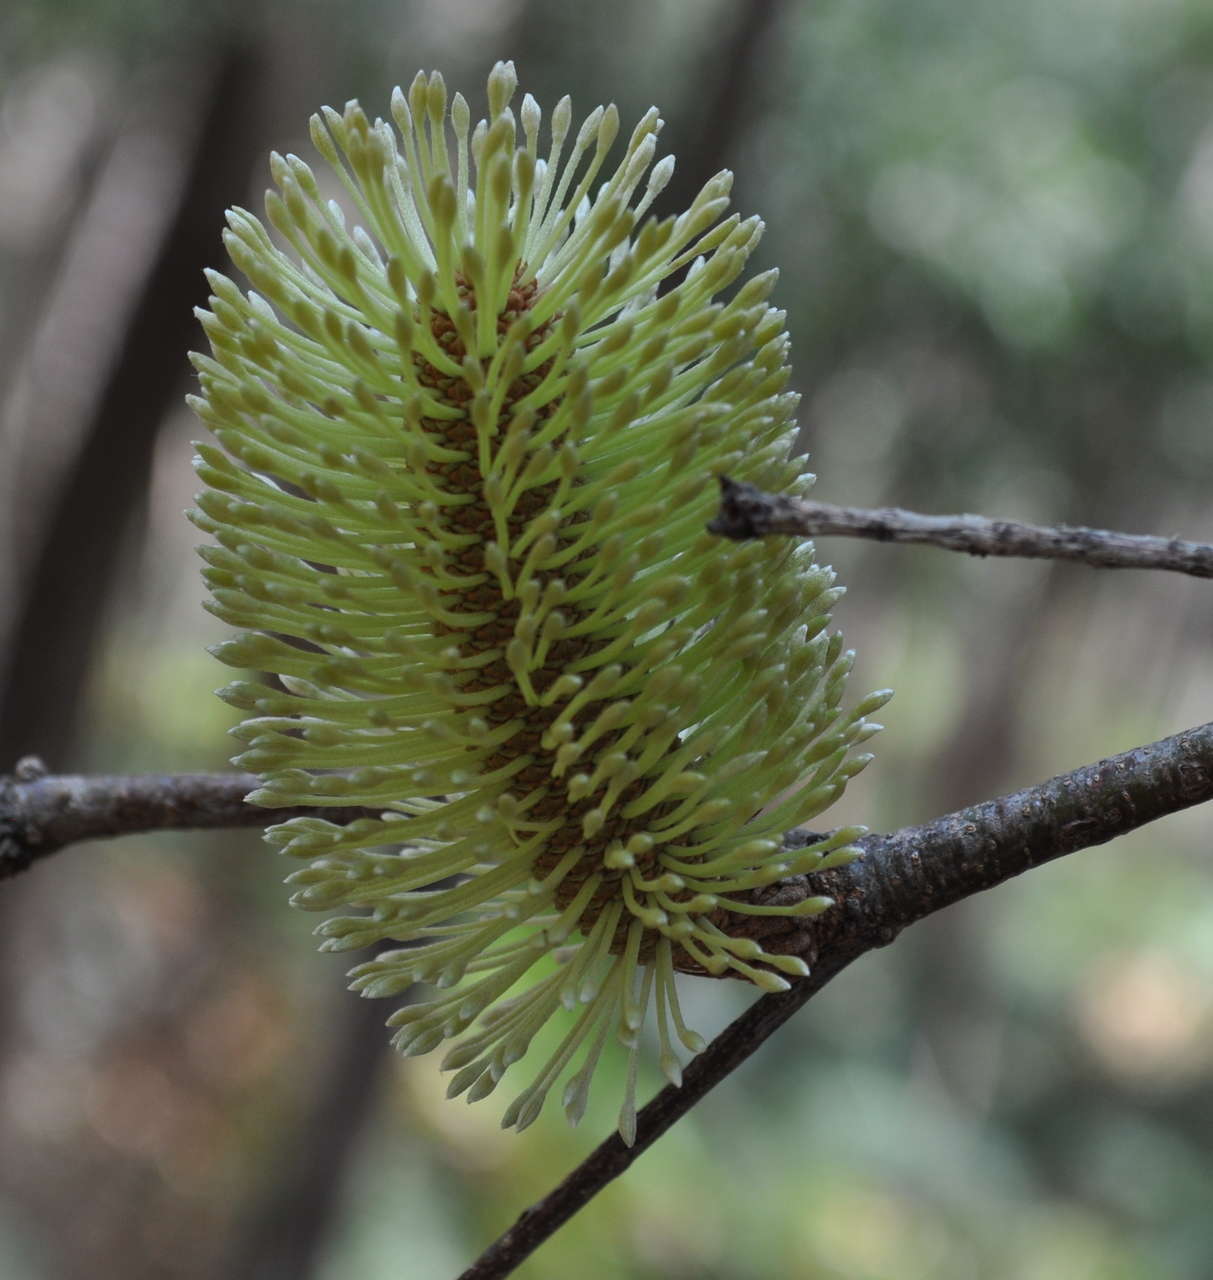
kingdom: Plantae
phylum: Tracheophyta
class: Magnoliopsida
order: Proteales
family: Proteaceae
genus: Banksia
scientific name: Banksia marginata
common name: Silver banksia
